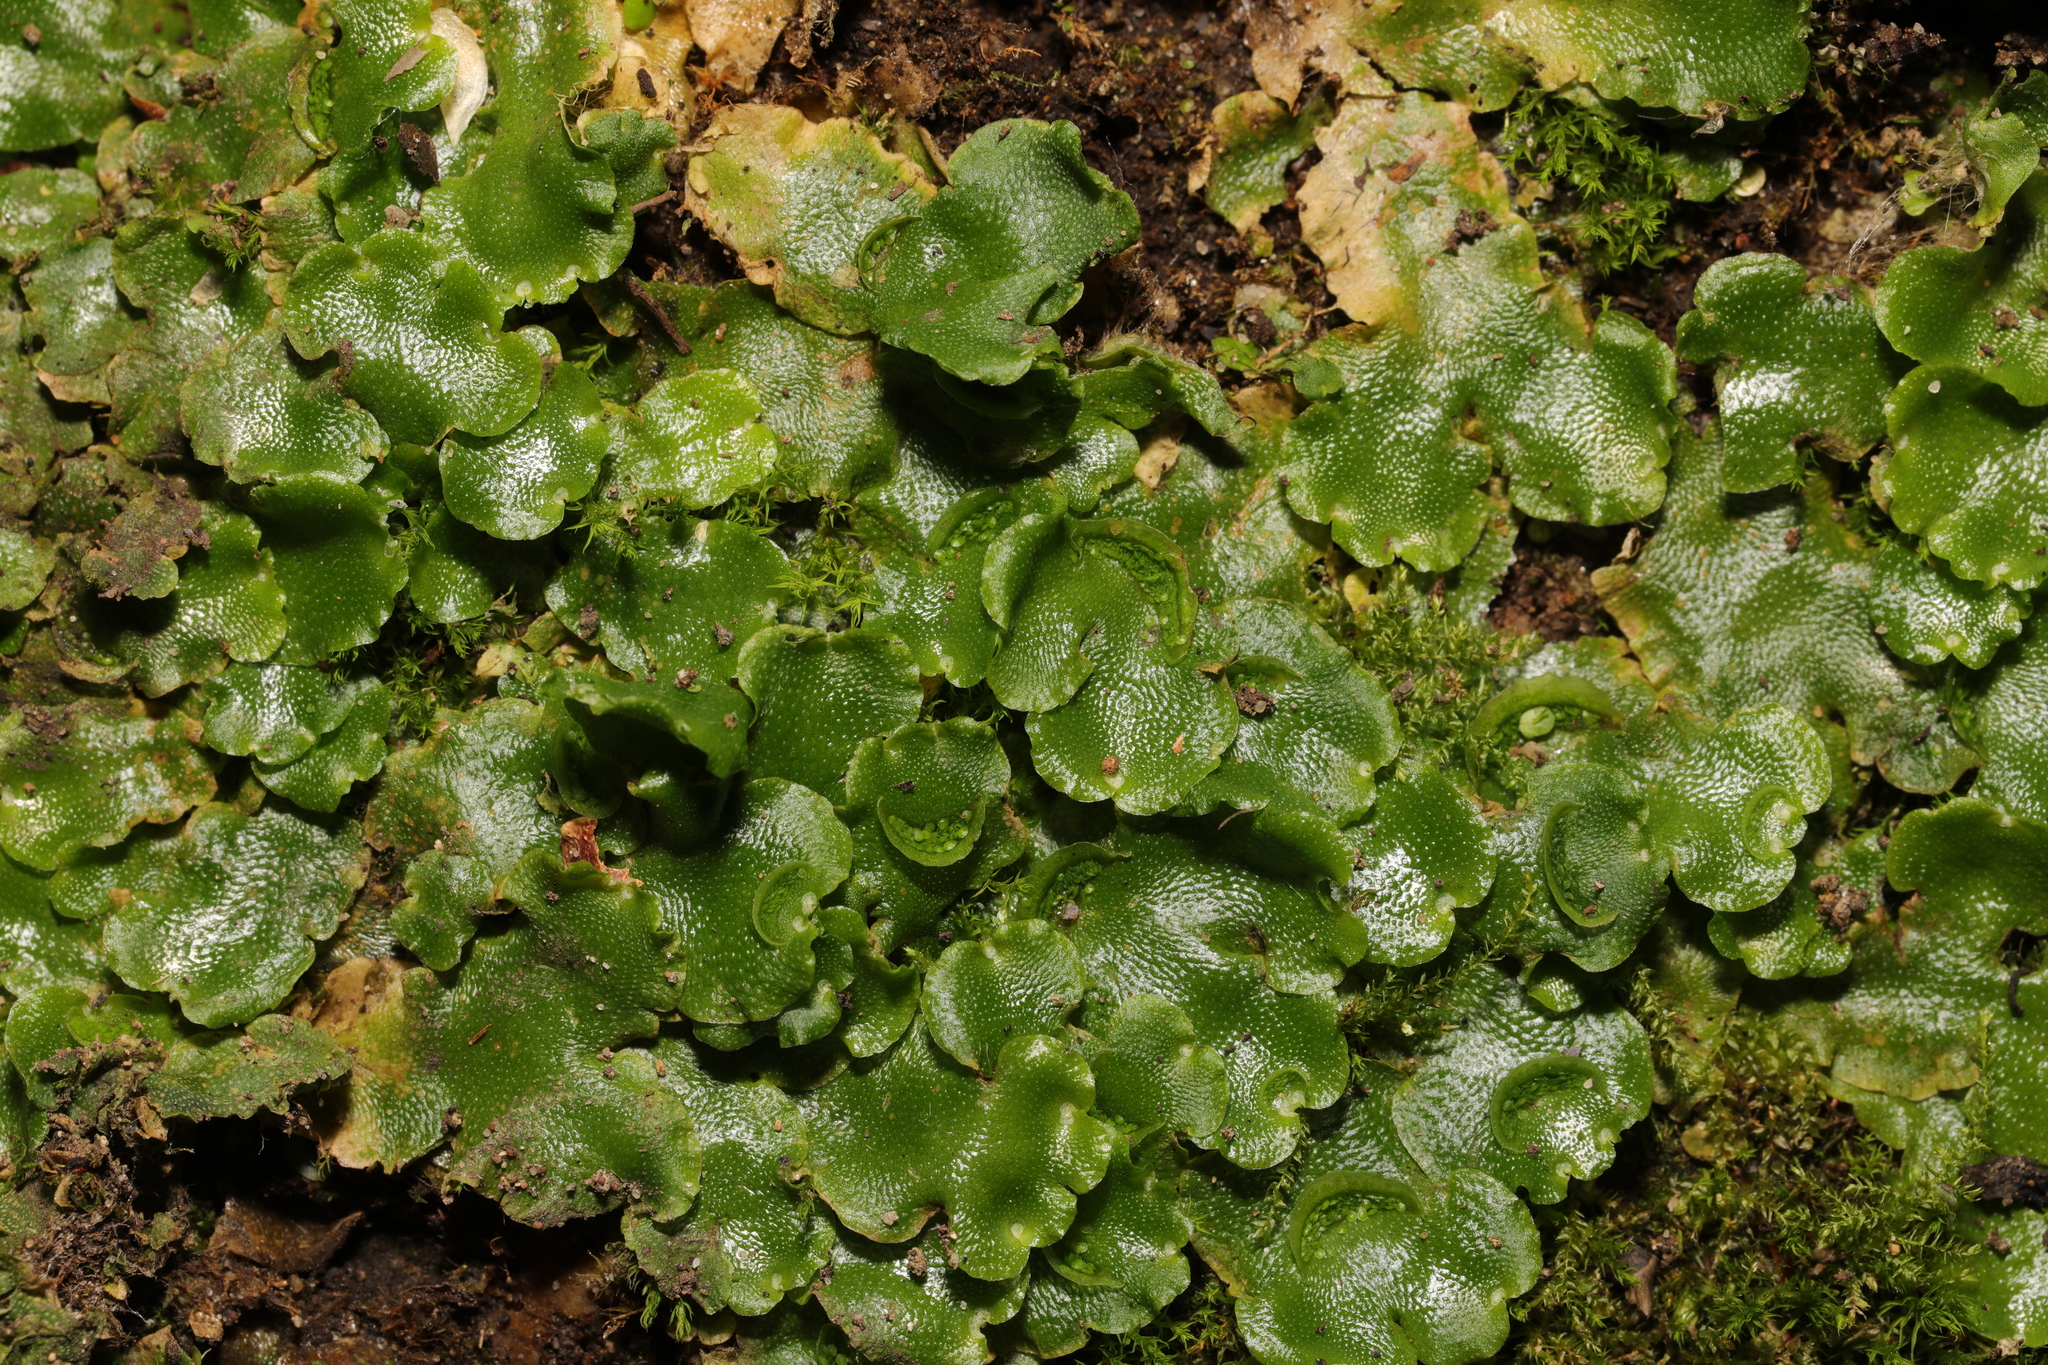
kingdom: Plantae
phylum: Marchantiophyta
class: Marchantiopsida
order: Lunulariales
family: Lunulariaceae
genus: Lunularia
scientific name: Lunularia cruciata
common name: Crescent-cup liverwort
